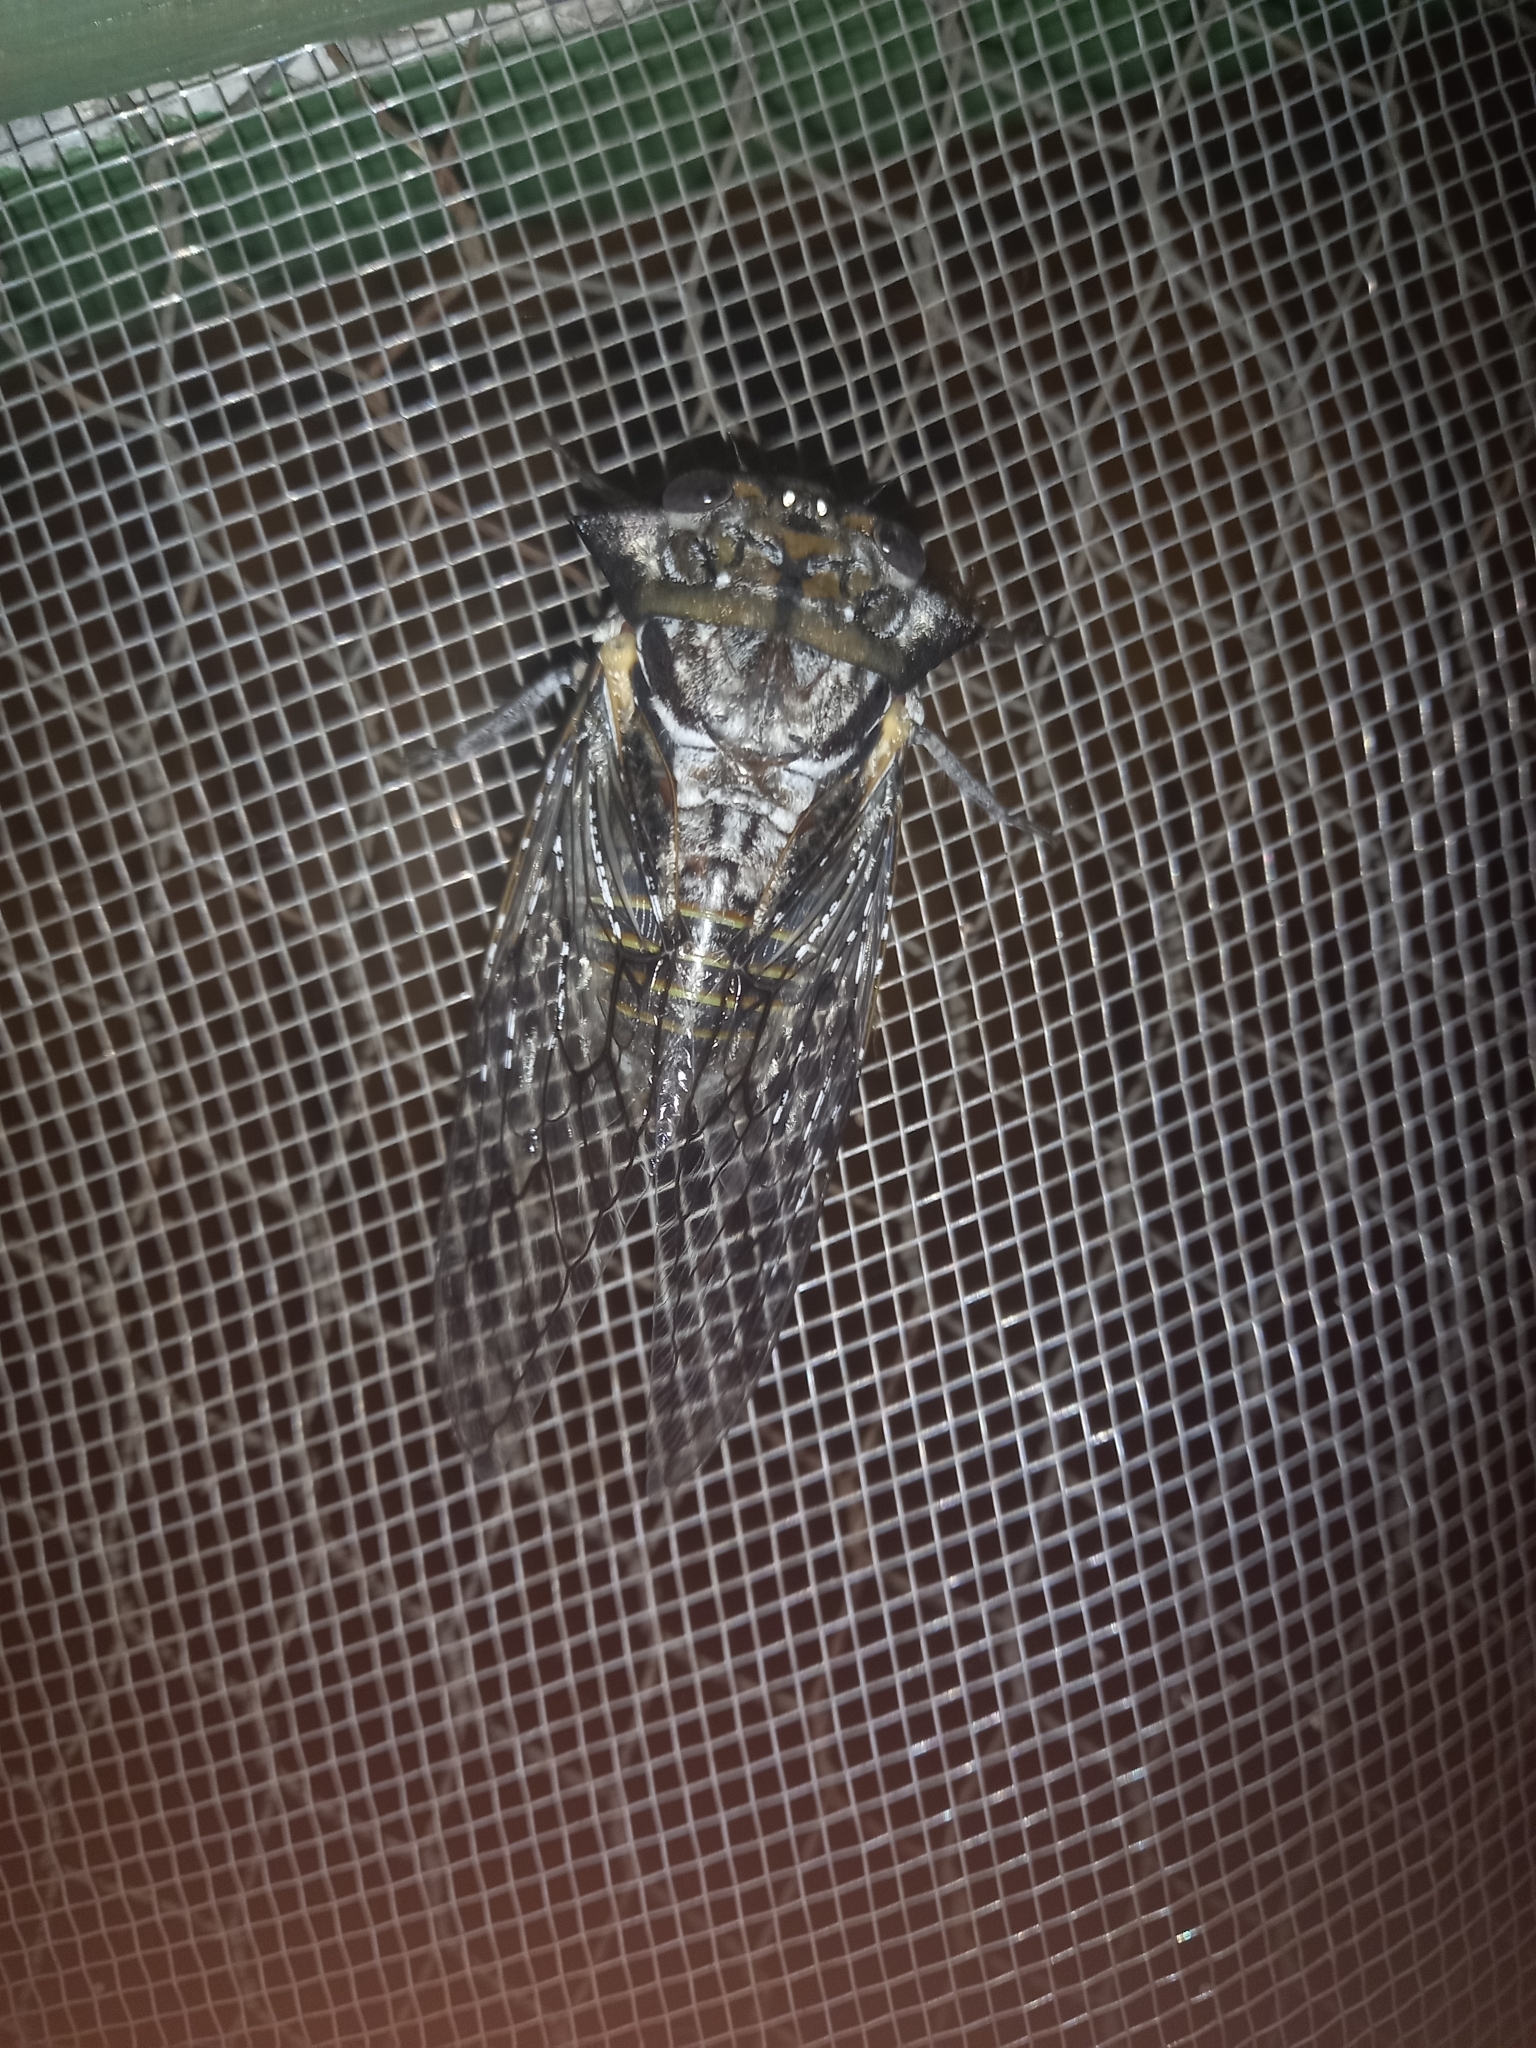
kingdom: Animalia
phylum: Arthropoda
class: Insecta
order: Hemiptera
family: Cicadidae
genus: Oxypleura
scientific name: Oxypleura quadraticollis
